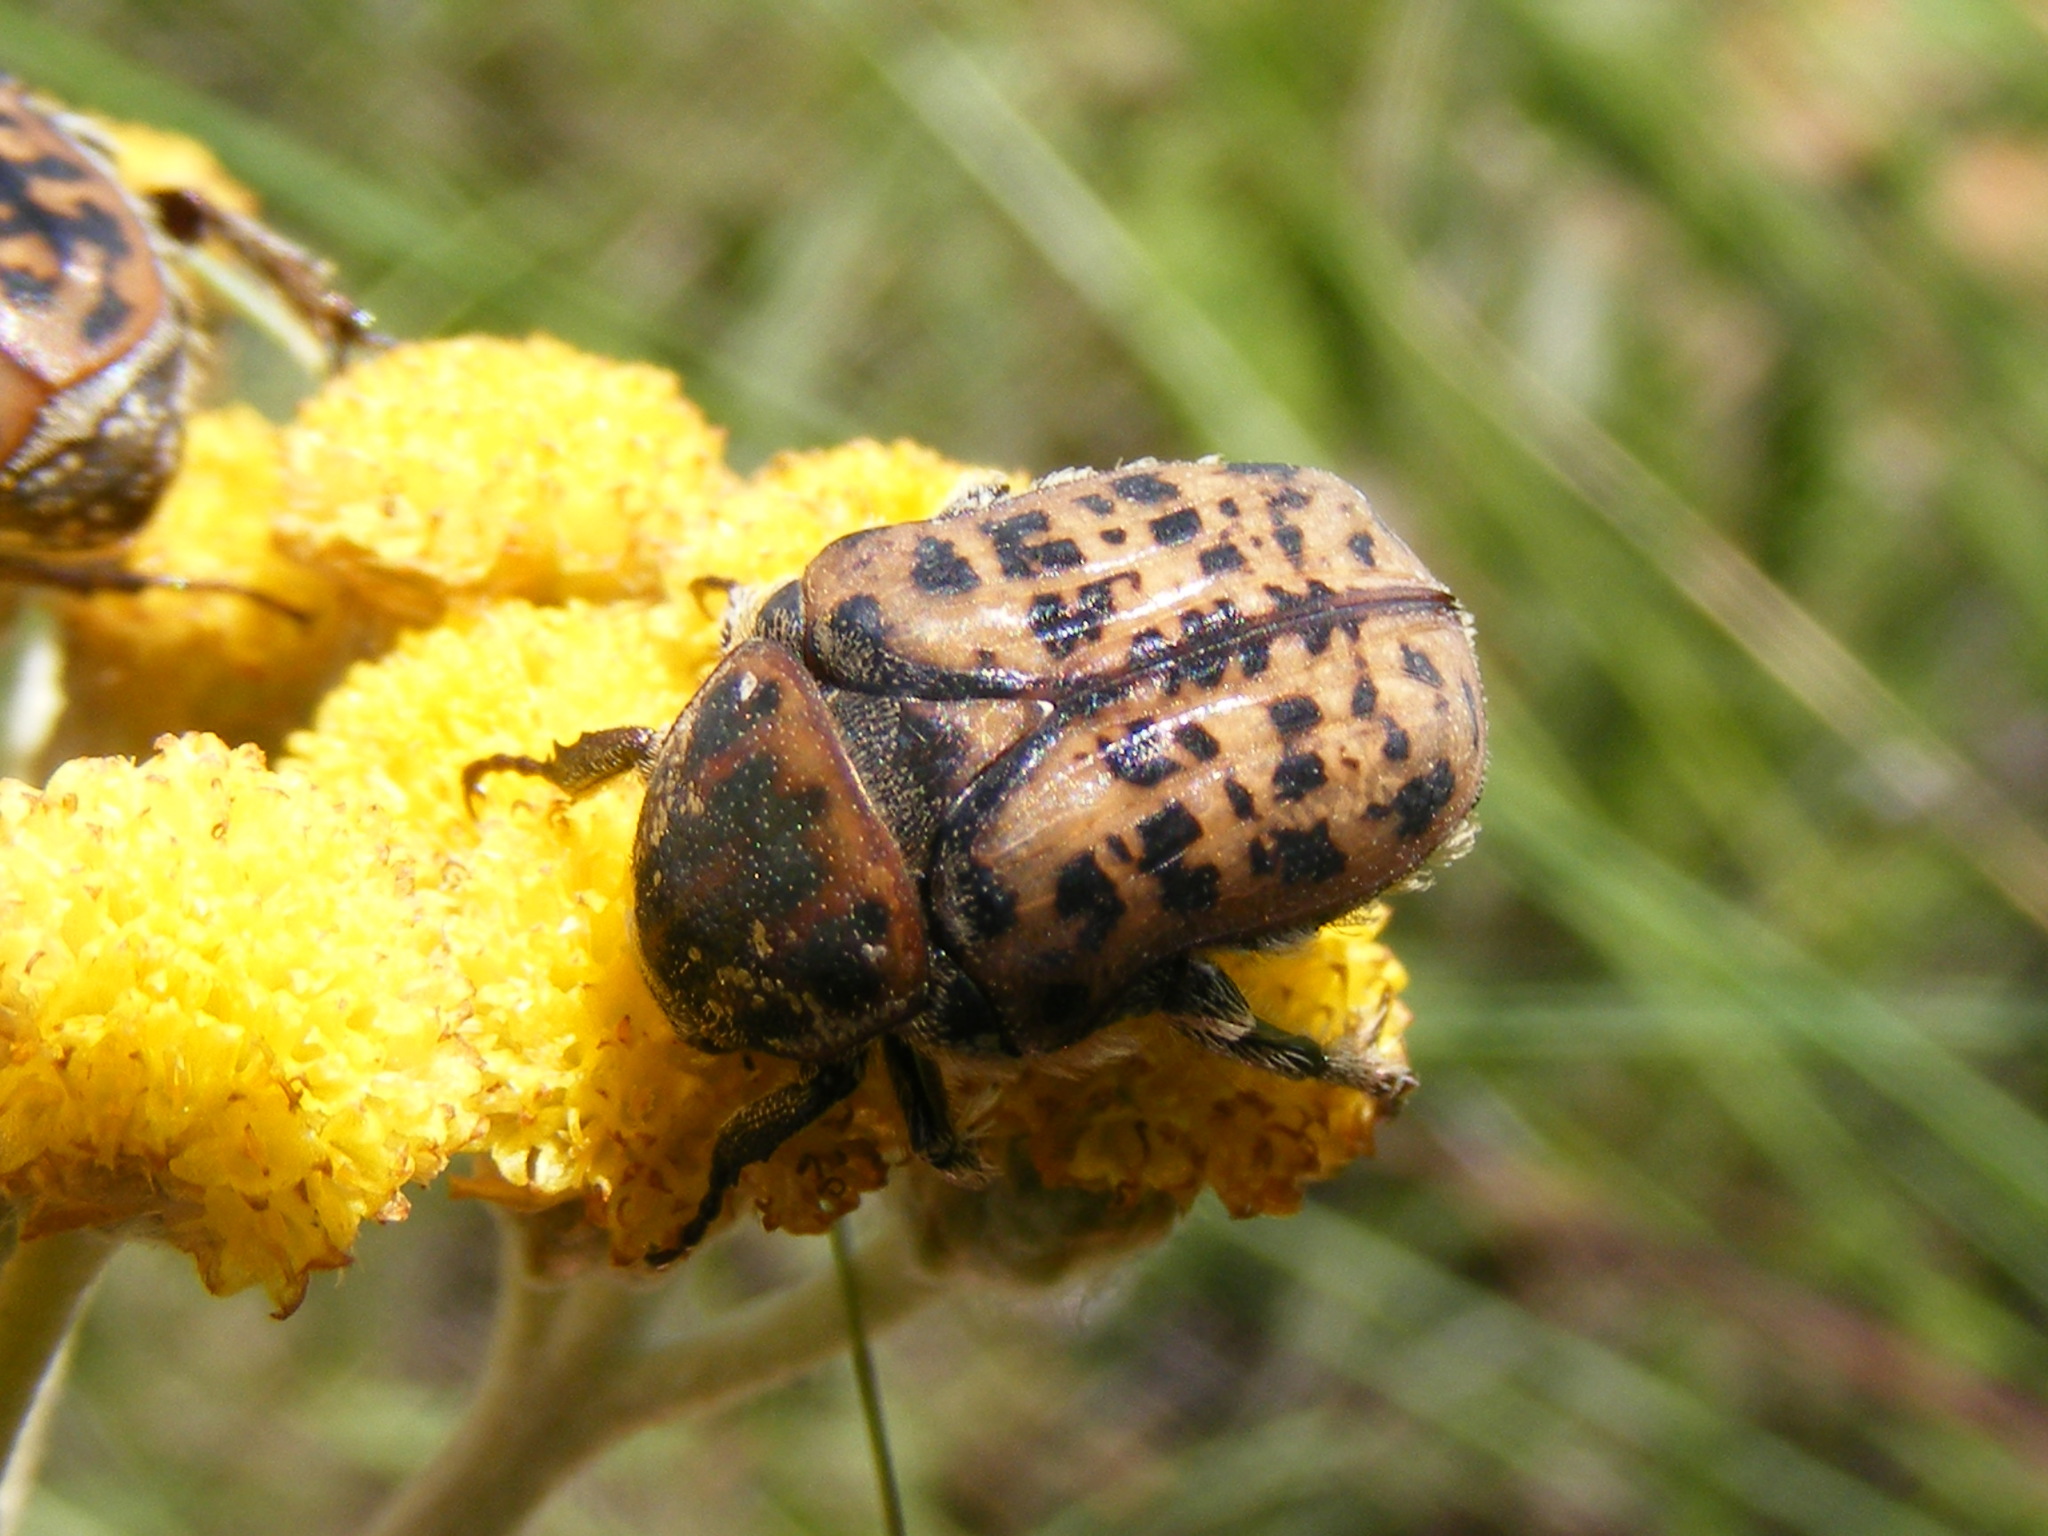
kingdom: Animalia
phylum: Arthropoda
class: Insecta
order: Coleoptera
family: Scarabaeidae
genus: Atrichelaphinis
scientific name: Atrichelaphinis tigrina
